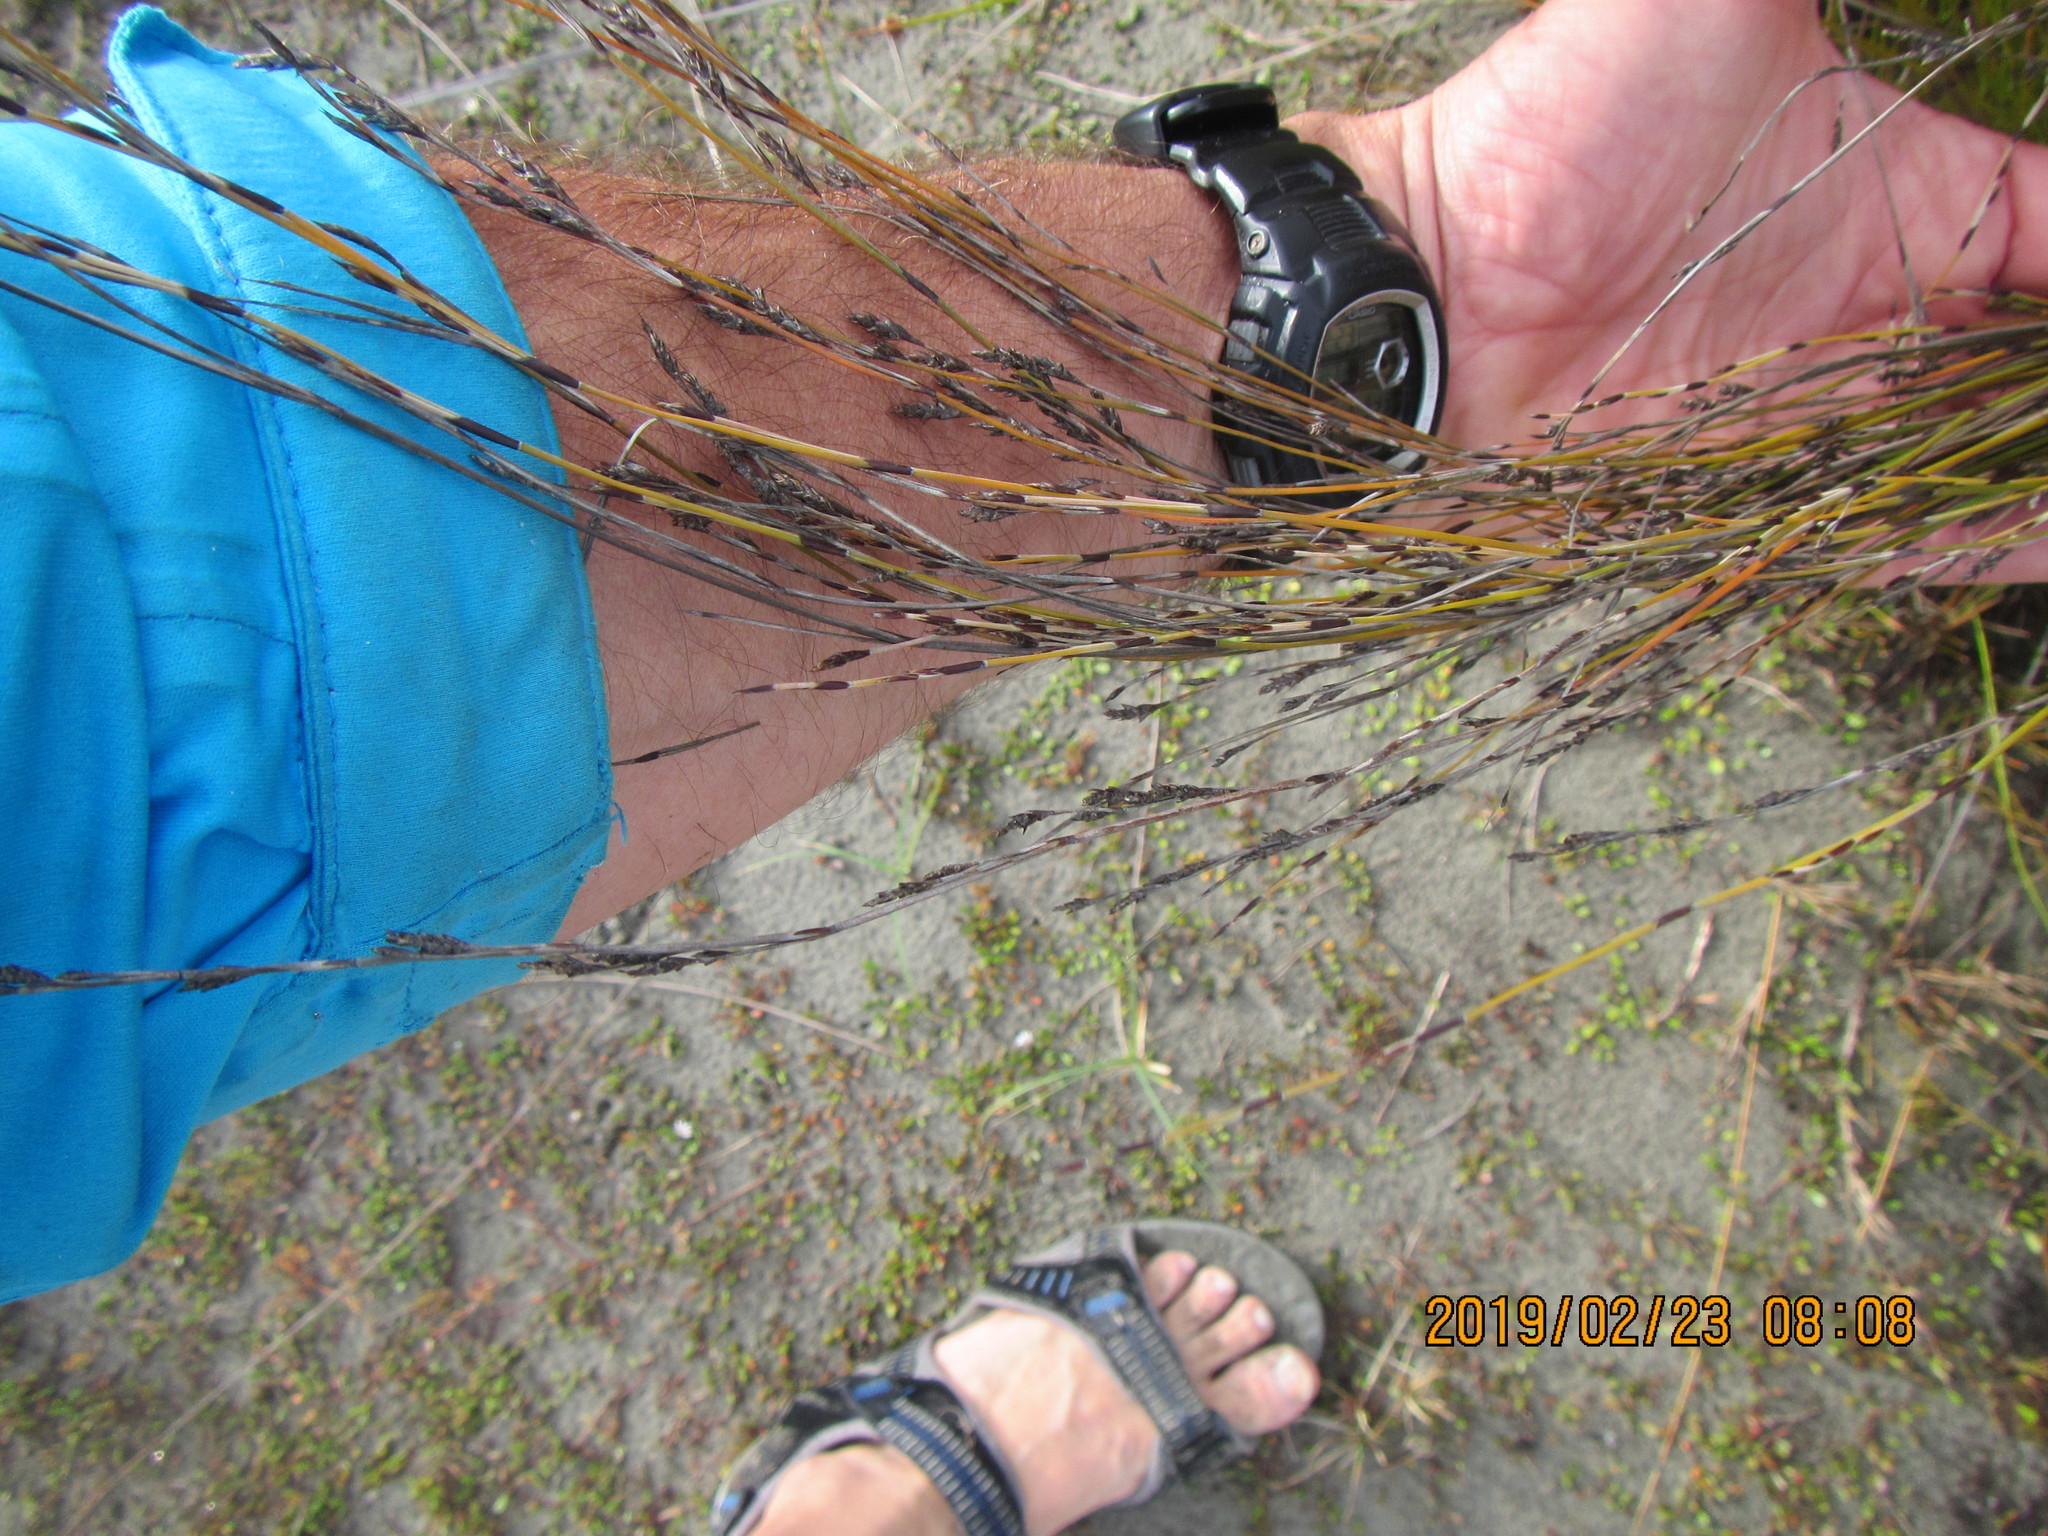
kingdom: Plantae
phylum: Tracheophyta
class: Liliopsida
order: Poales
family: Restionaceae
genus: Apodasmia
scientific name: Apodasmia similis
